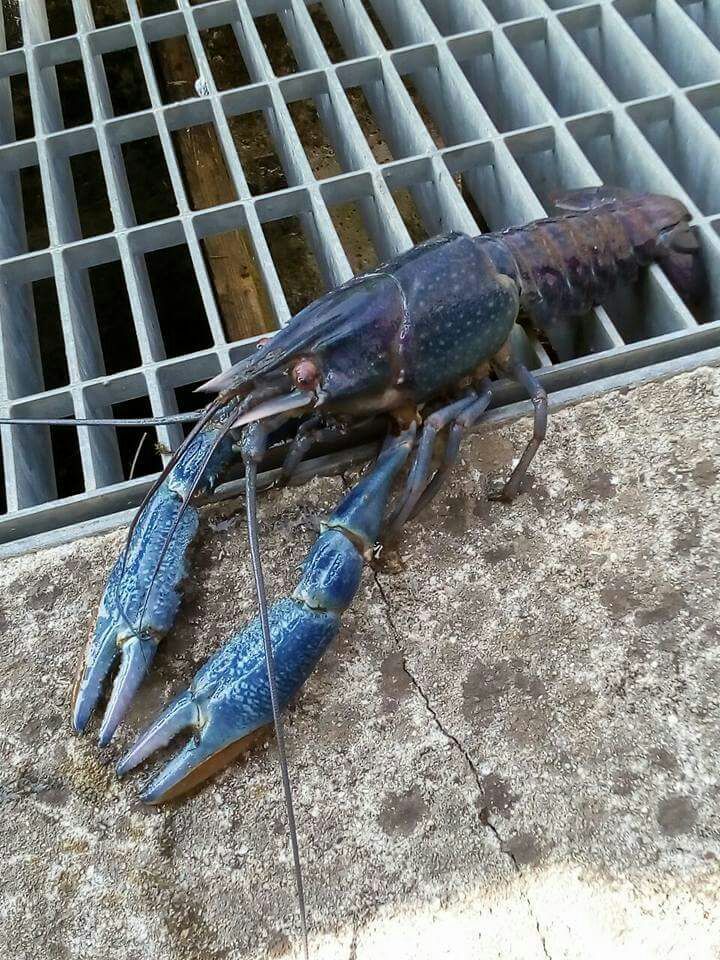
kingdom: Animalia
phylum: Arthropoda
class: Malacostraca
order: Decapoda
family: Parastacidae
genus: Cherax
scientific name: Cherax quadricarinatus
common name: Redclaw
